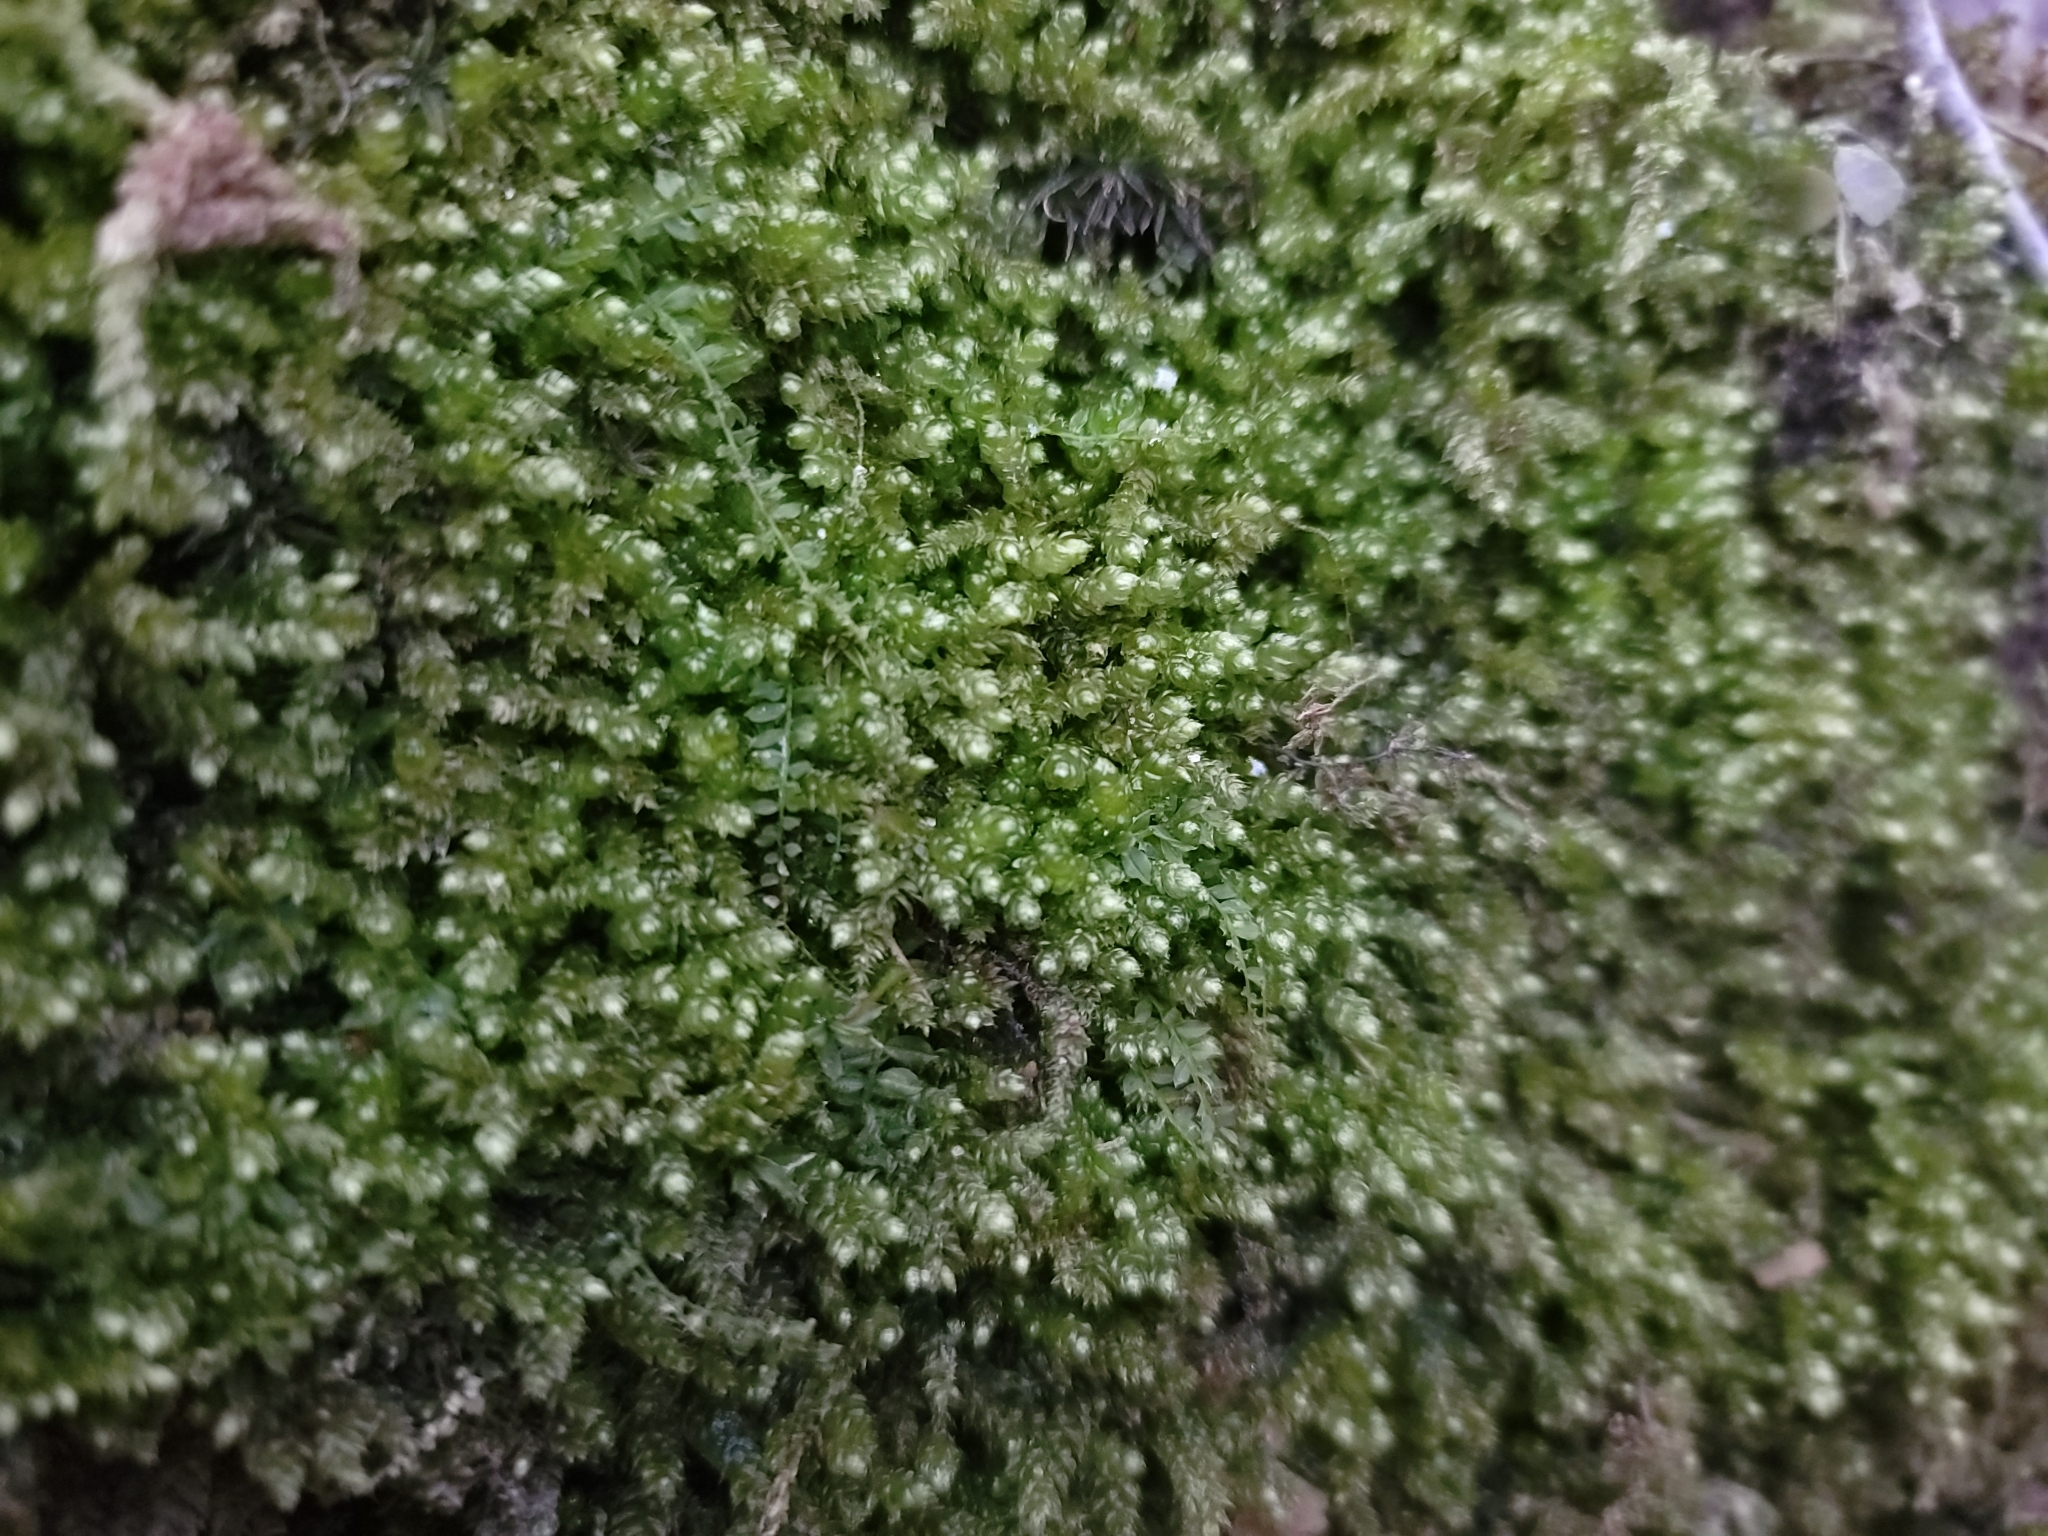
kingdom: Plantae
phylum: Bryophyta
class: Bryopsida
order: Hypnales
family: Brachytheciaceae
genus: Bryoandersonia
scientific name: Bryoandersonia illecebra
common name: Spoon-leaved moss
